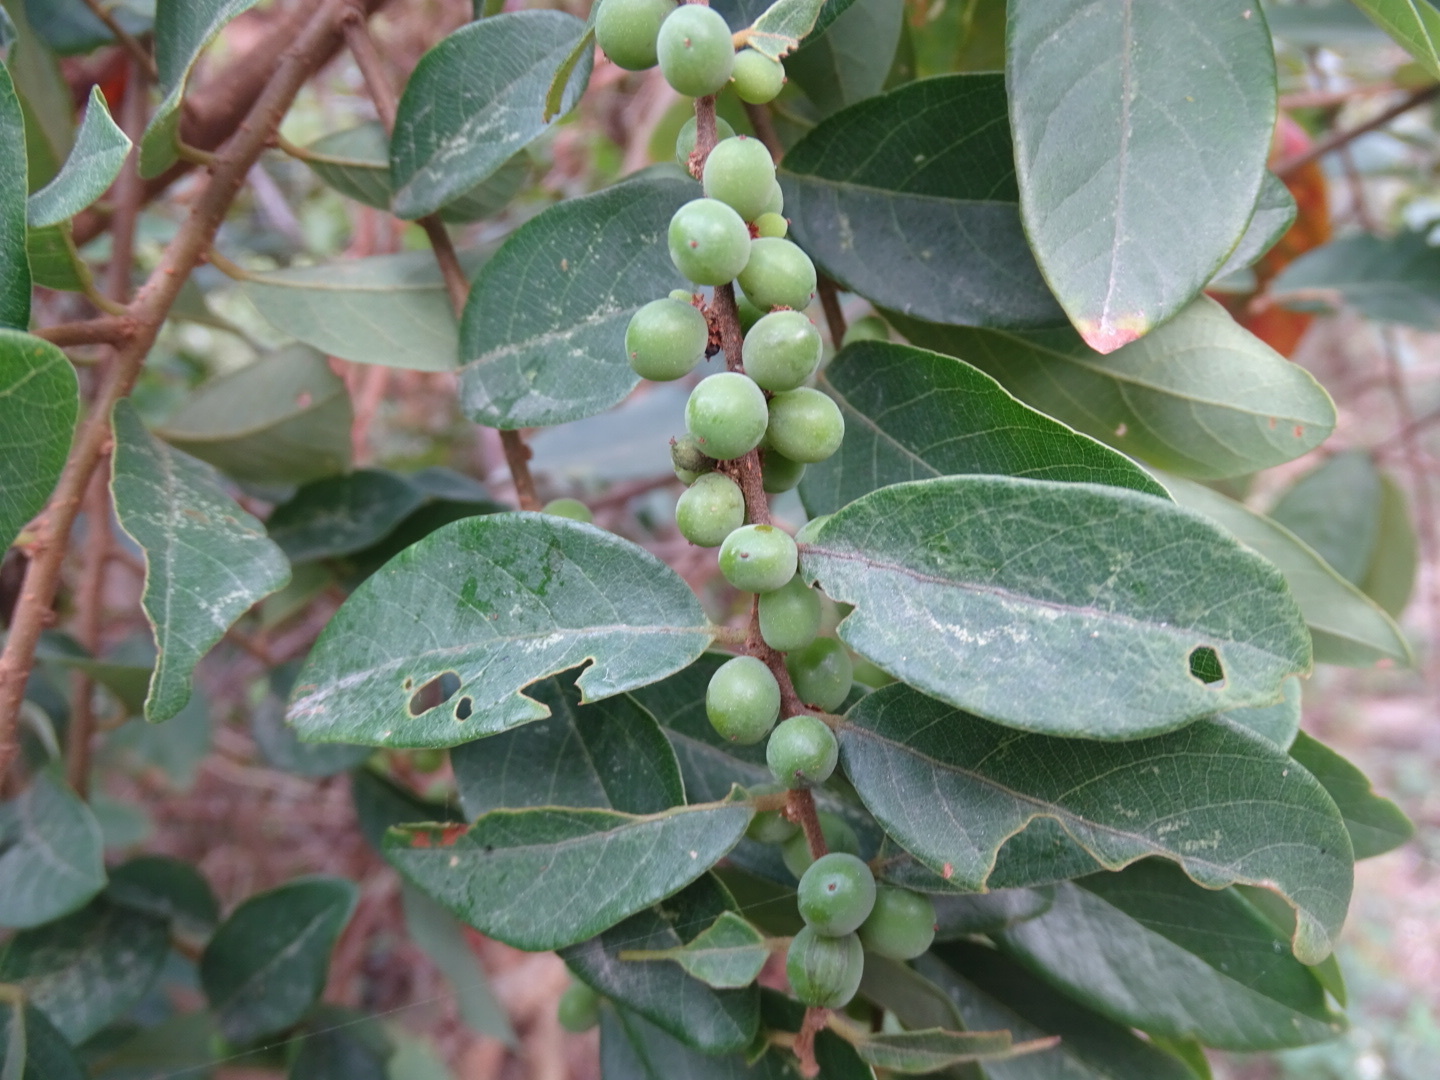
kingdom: Plantae
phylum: Tracheophyta
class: Magnoliopsida
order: Malpighiales
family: Phyllanthaceae
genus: Bridelia
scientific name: Bridelia tomentosa
